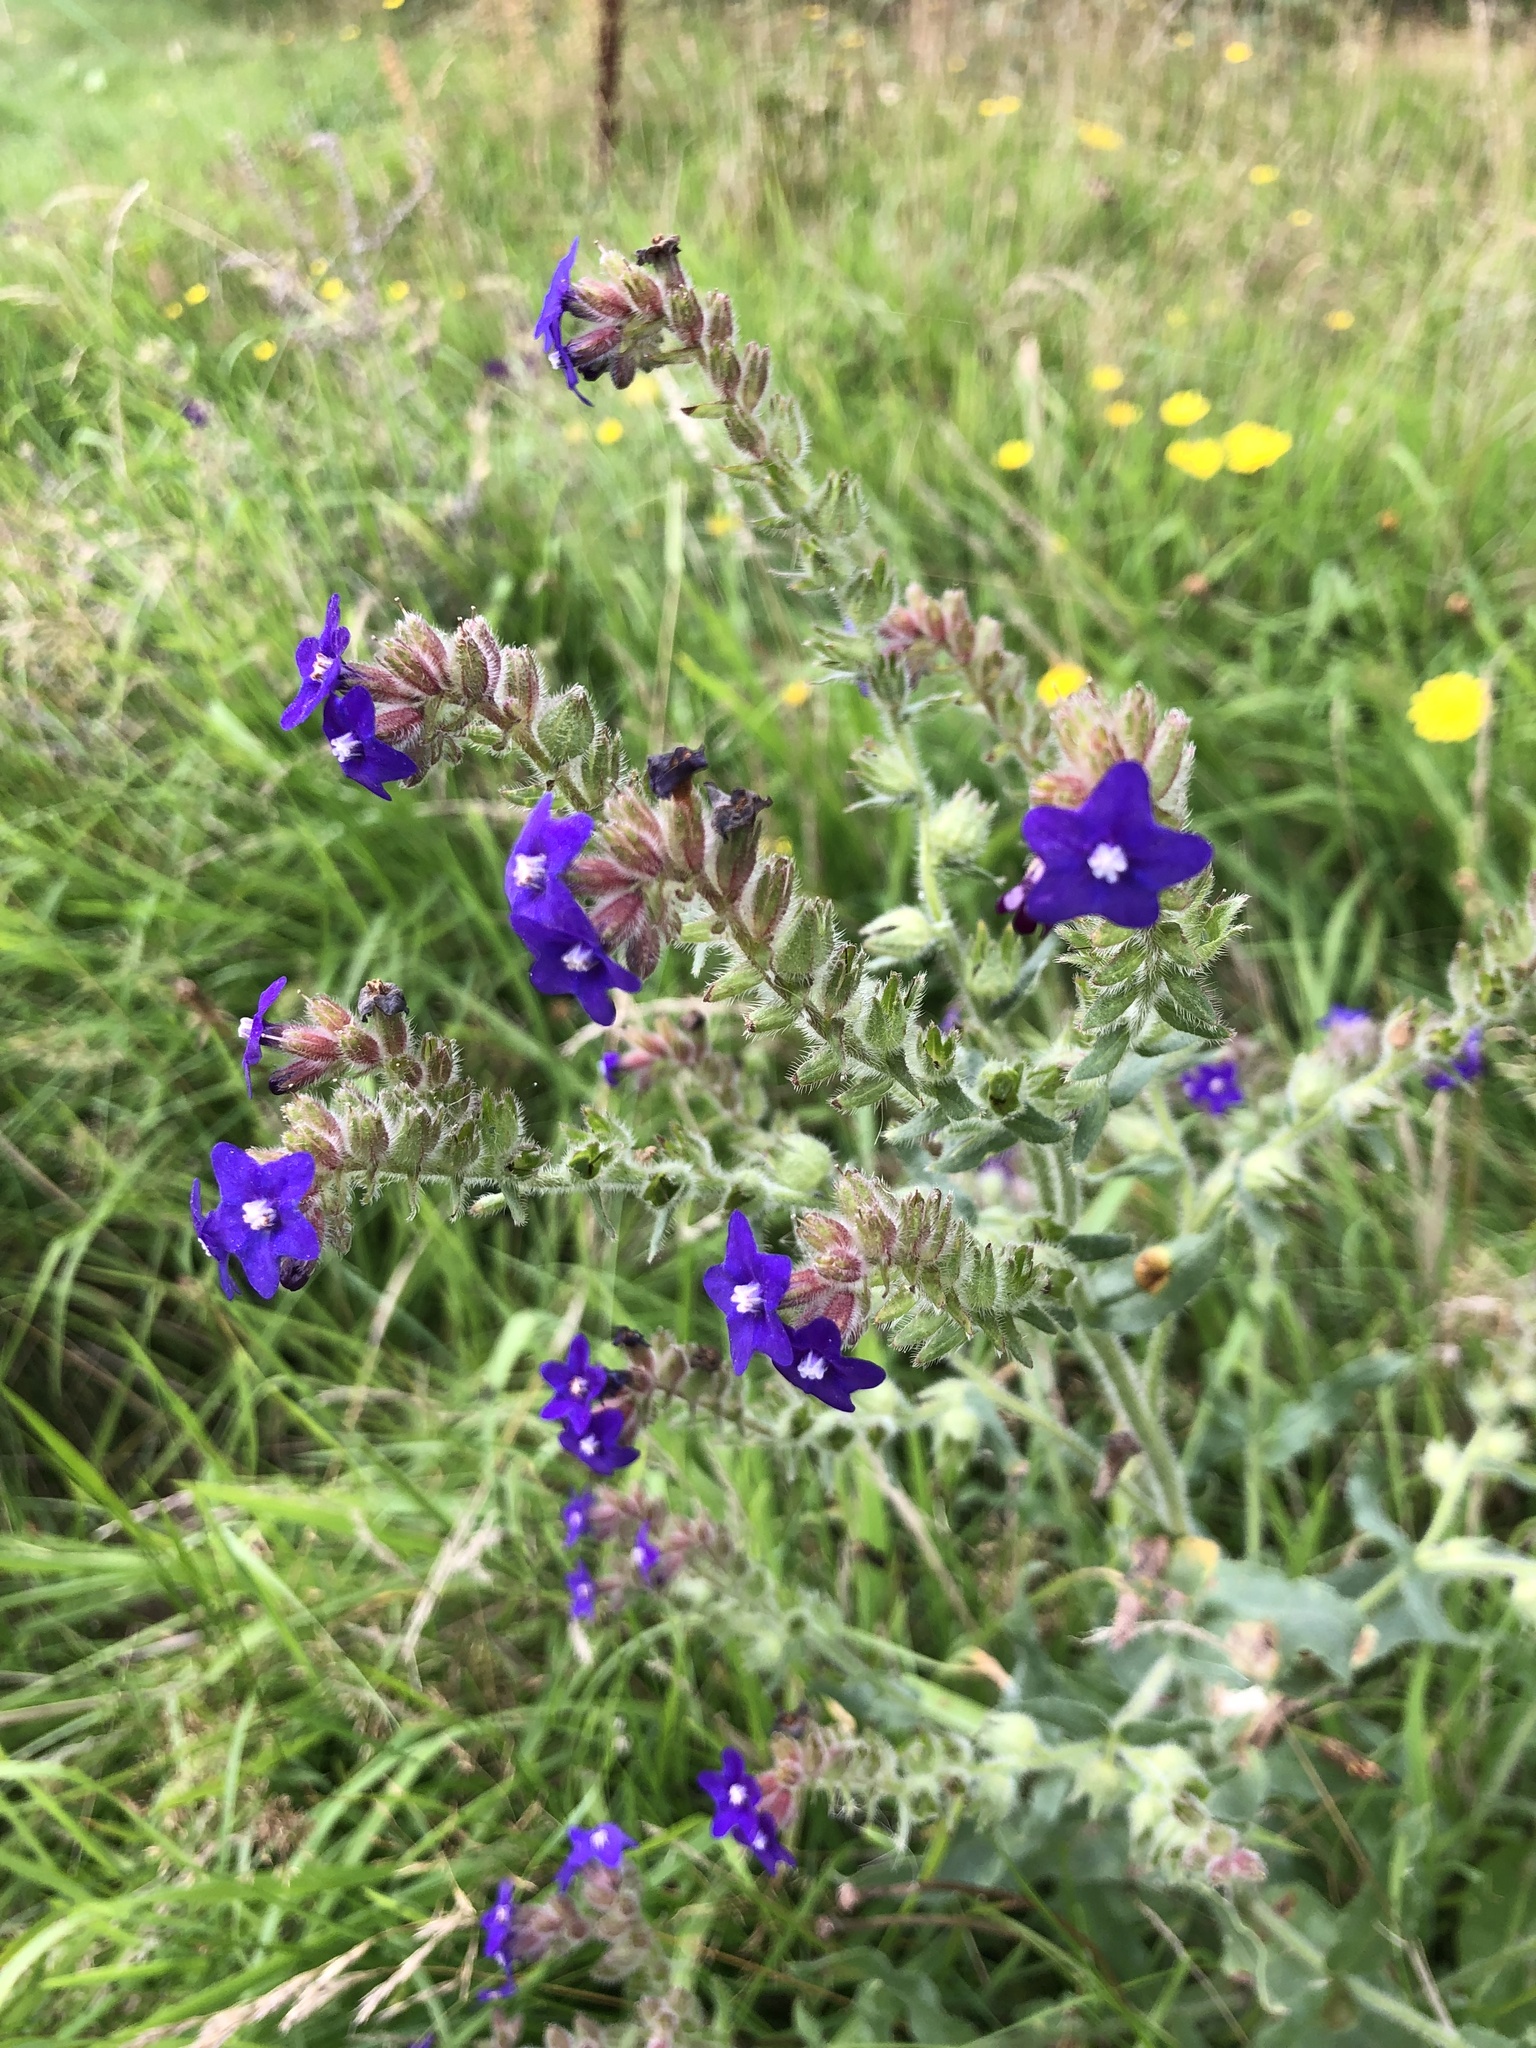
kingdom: Plantae
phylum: Tracheophyta
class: Magnoliopsida
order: Boraginales
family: Boraginaceae
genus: Anchusa
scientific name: Anchusa officinalis
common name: Alkanet
